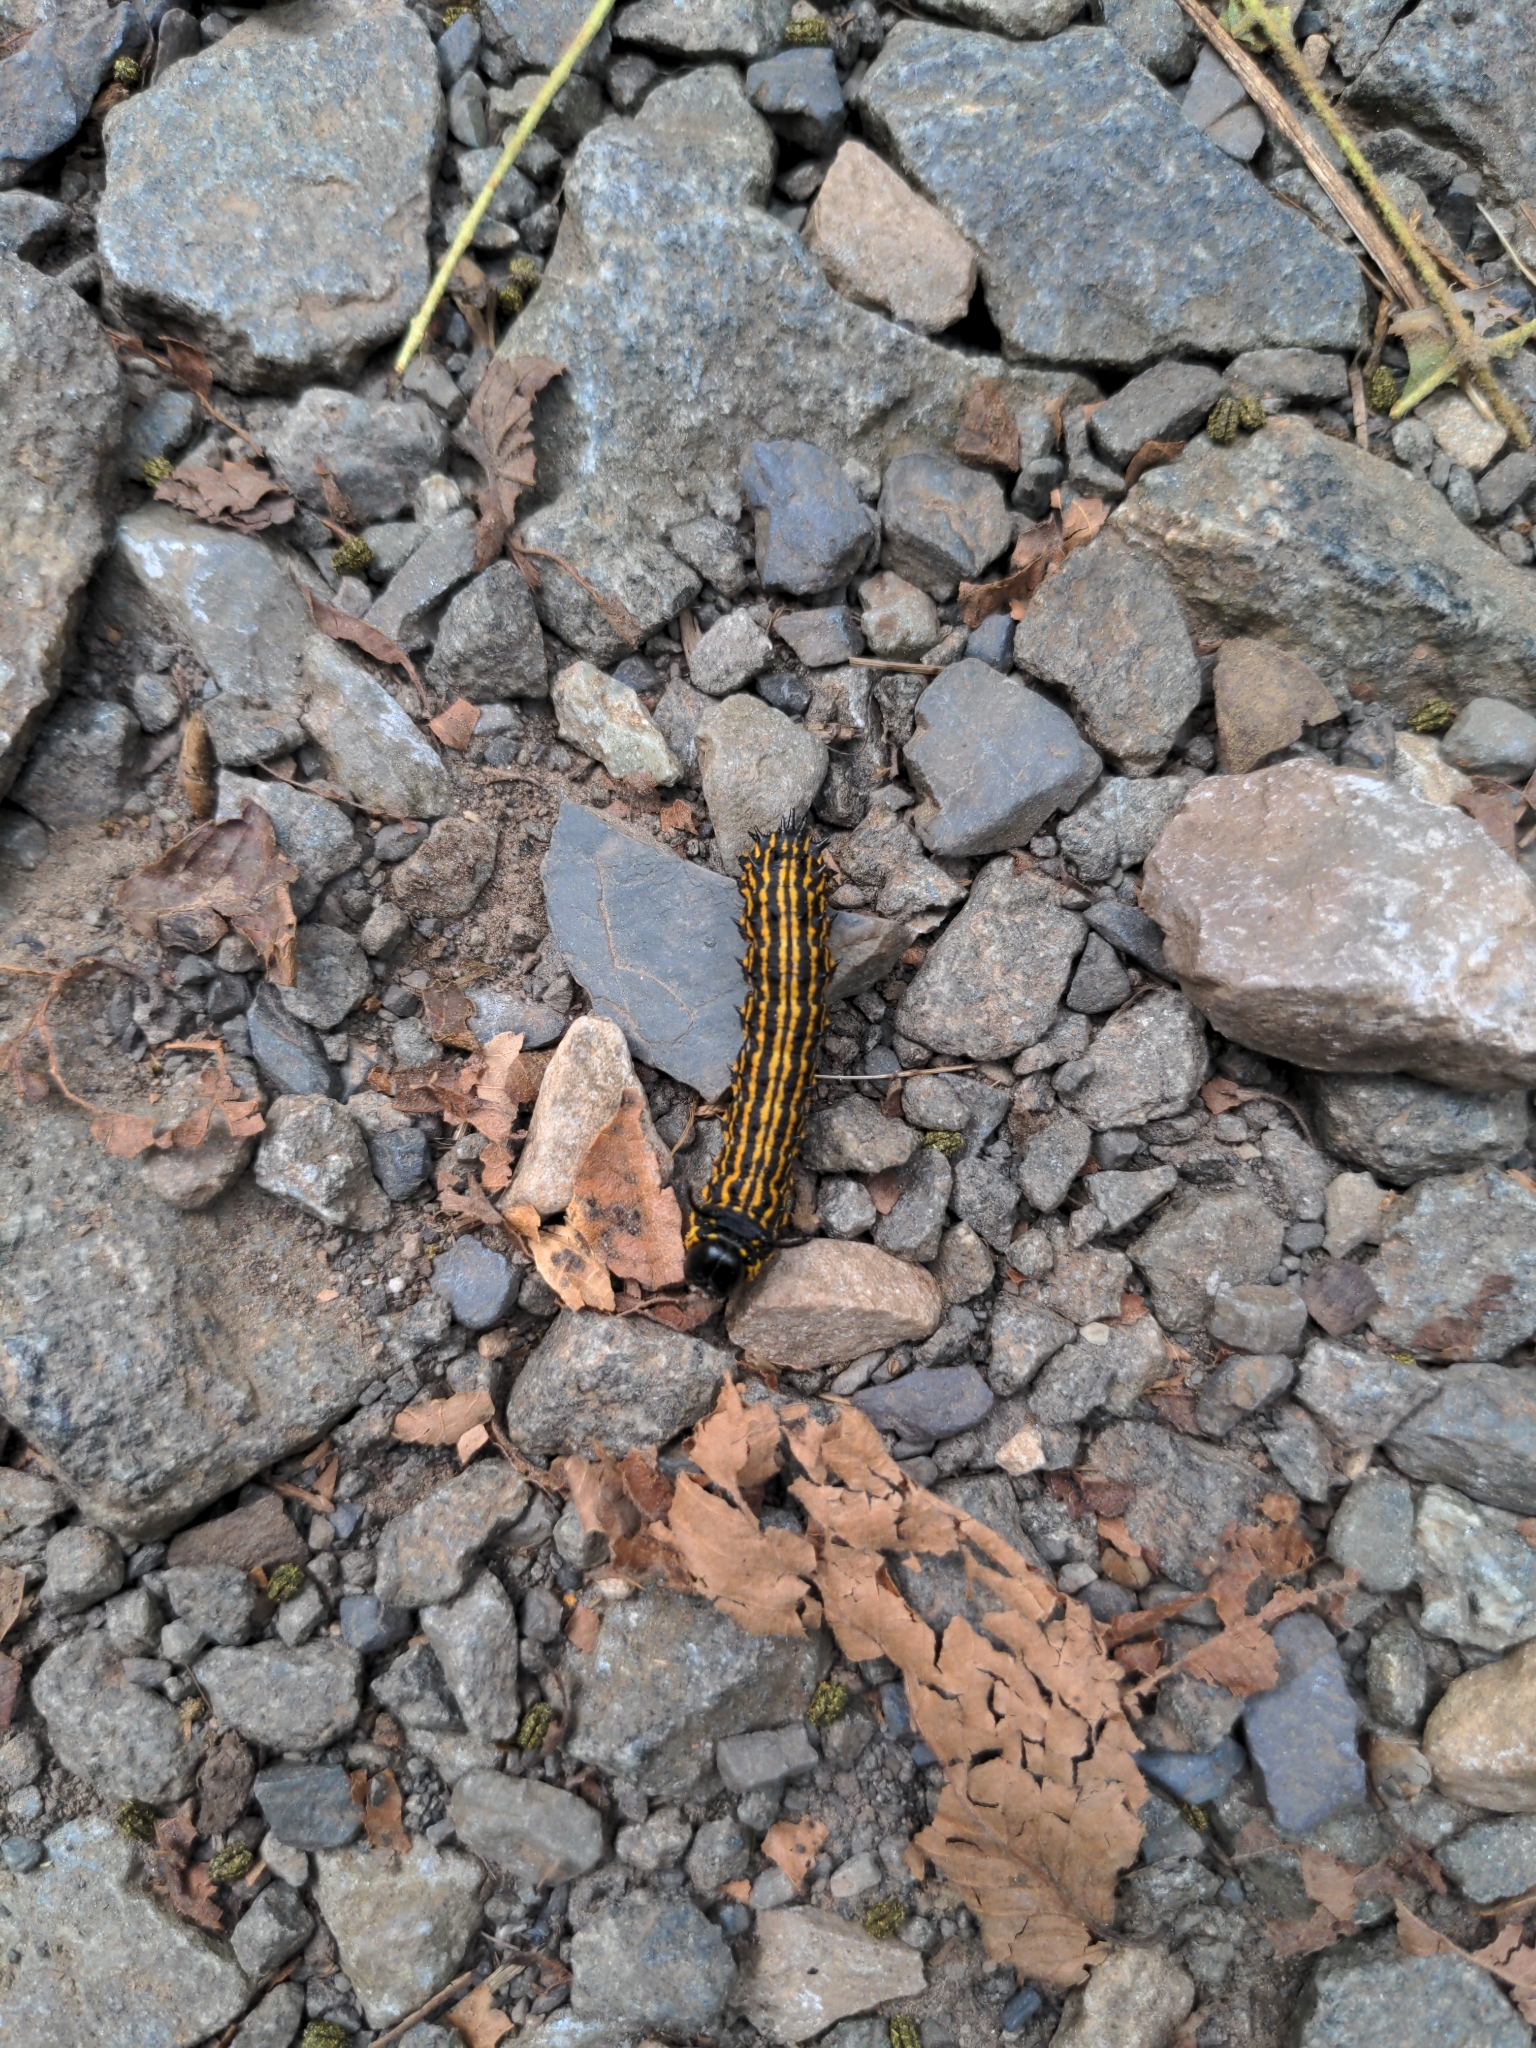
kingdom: Animalia
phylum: Arthropoda
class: Insecta
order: Lepidoptera
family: Saturniidae
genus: Anisota
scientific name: Anisota senatoria
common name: Orange-striped oakworm moth
